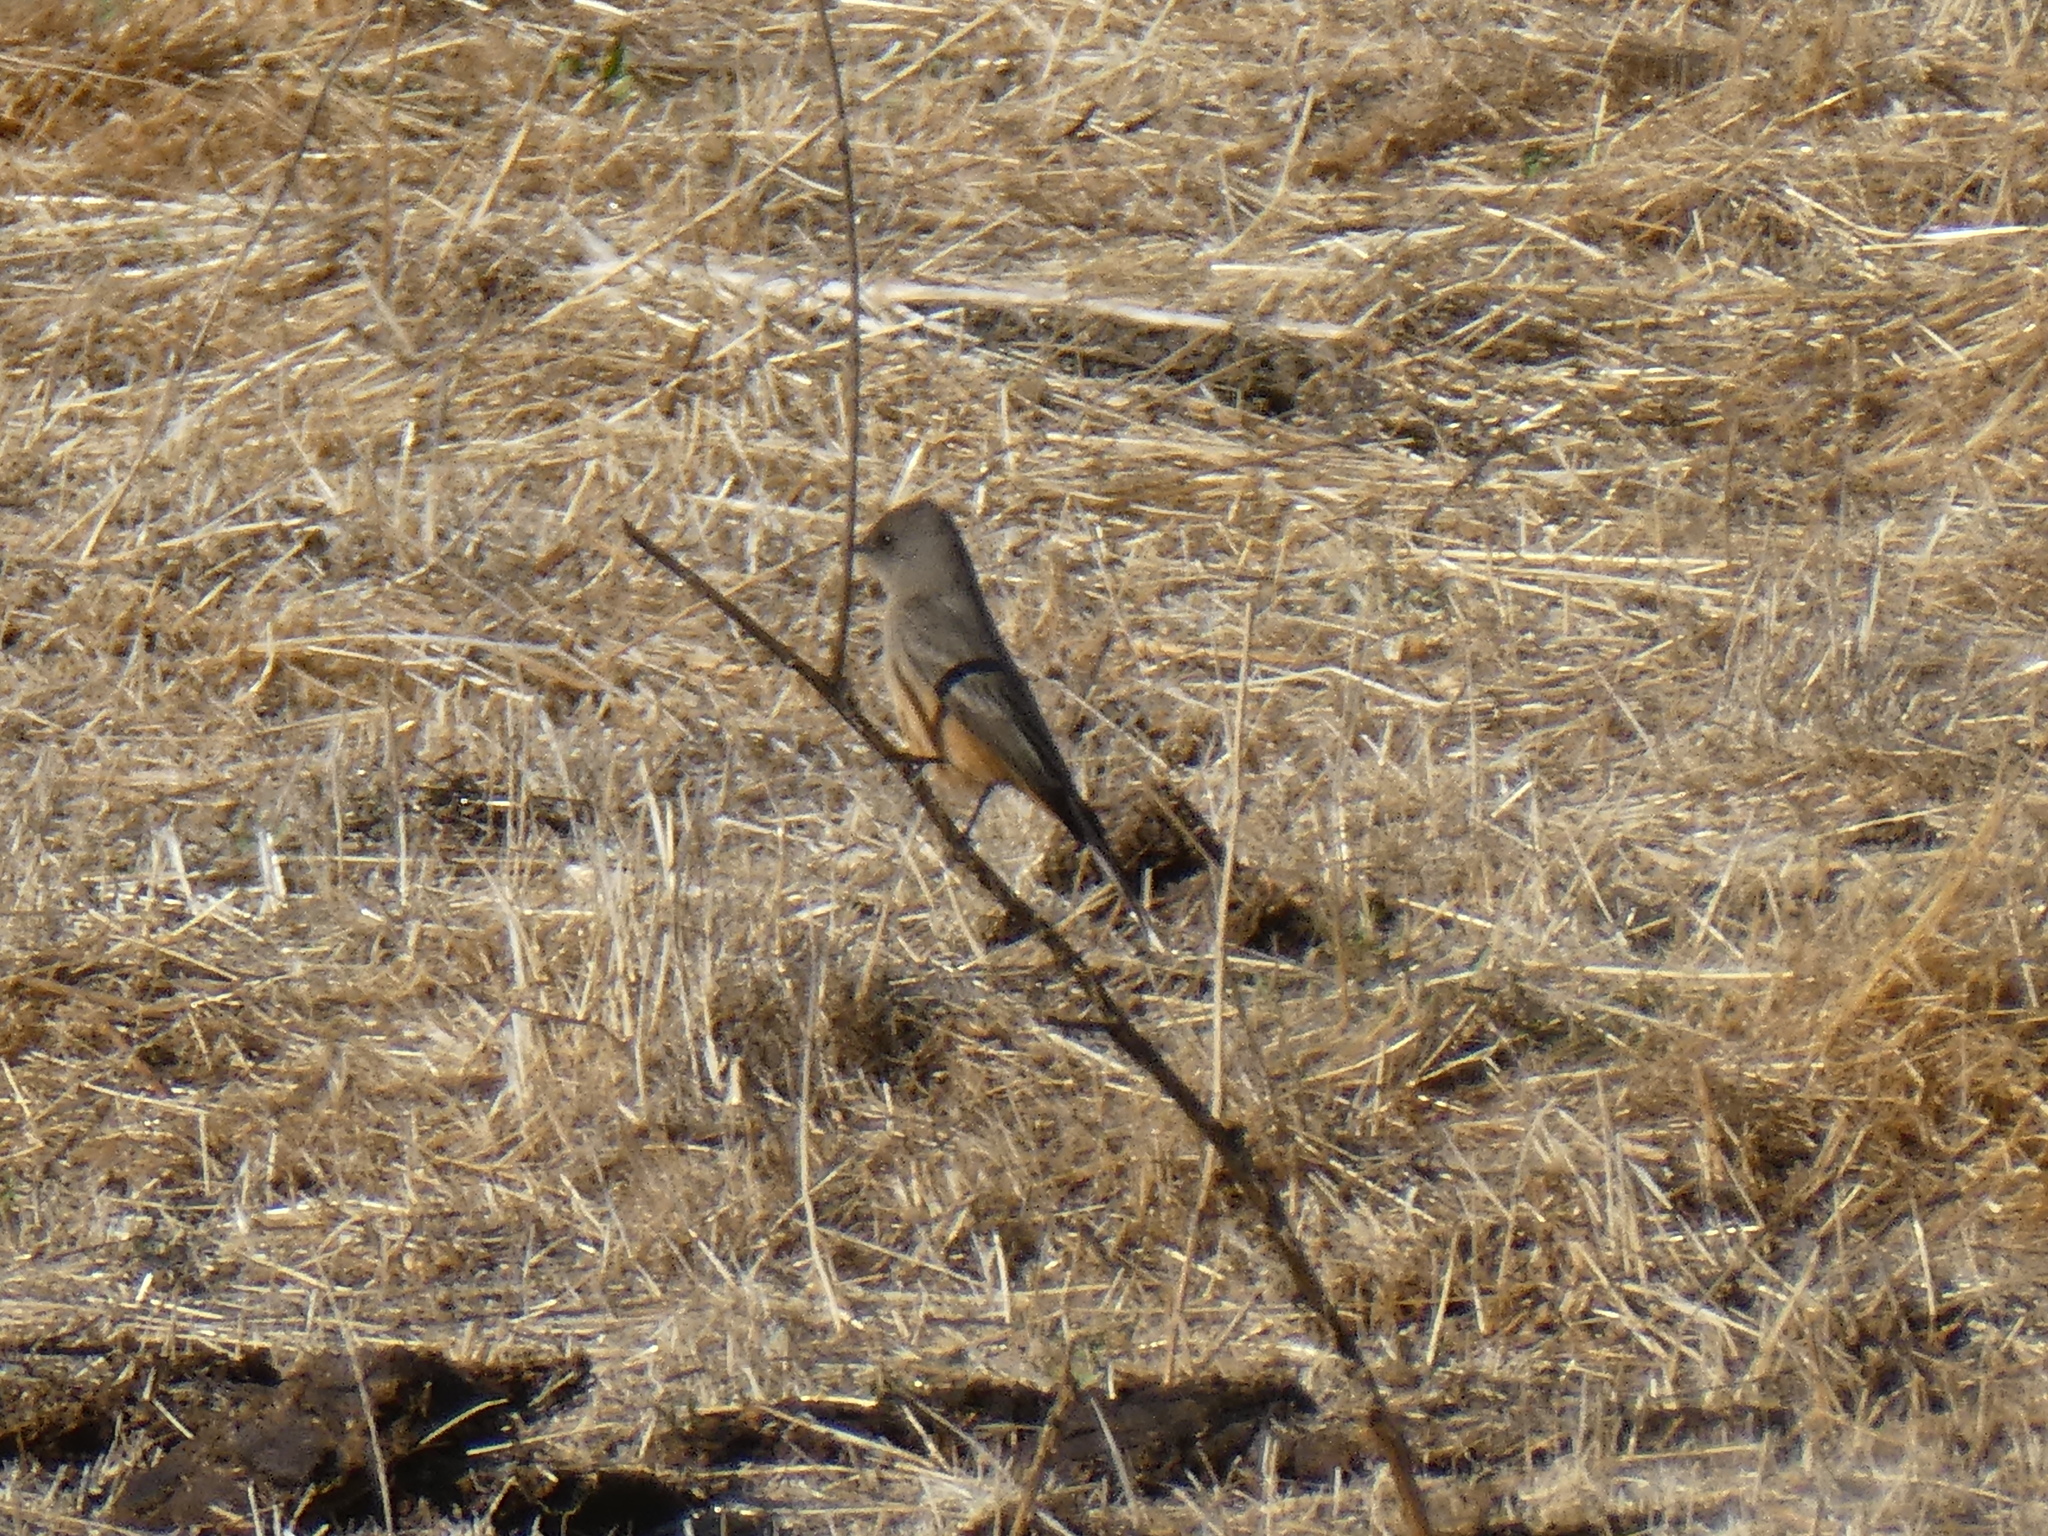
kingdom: Animalia
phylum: Chordata
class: Aves
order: Passeriformes
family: Tyrannidae
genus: Sayornis
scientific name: Sayornis saya
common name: Say's phoebe
